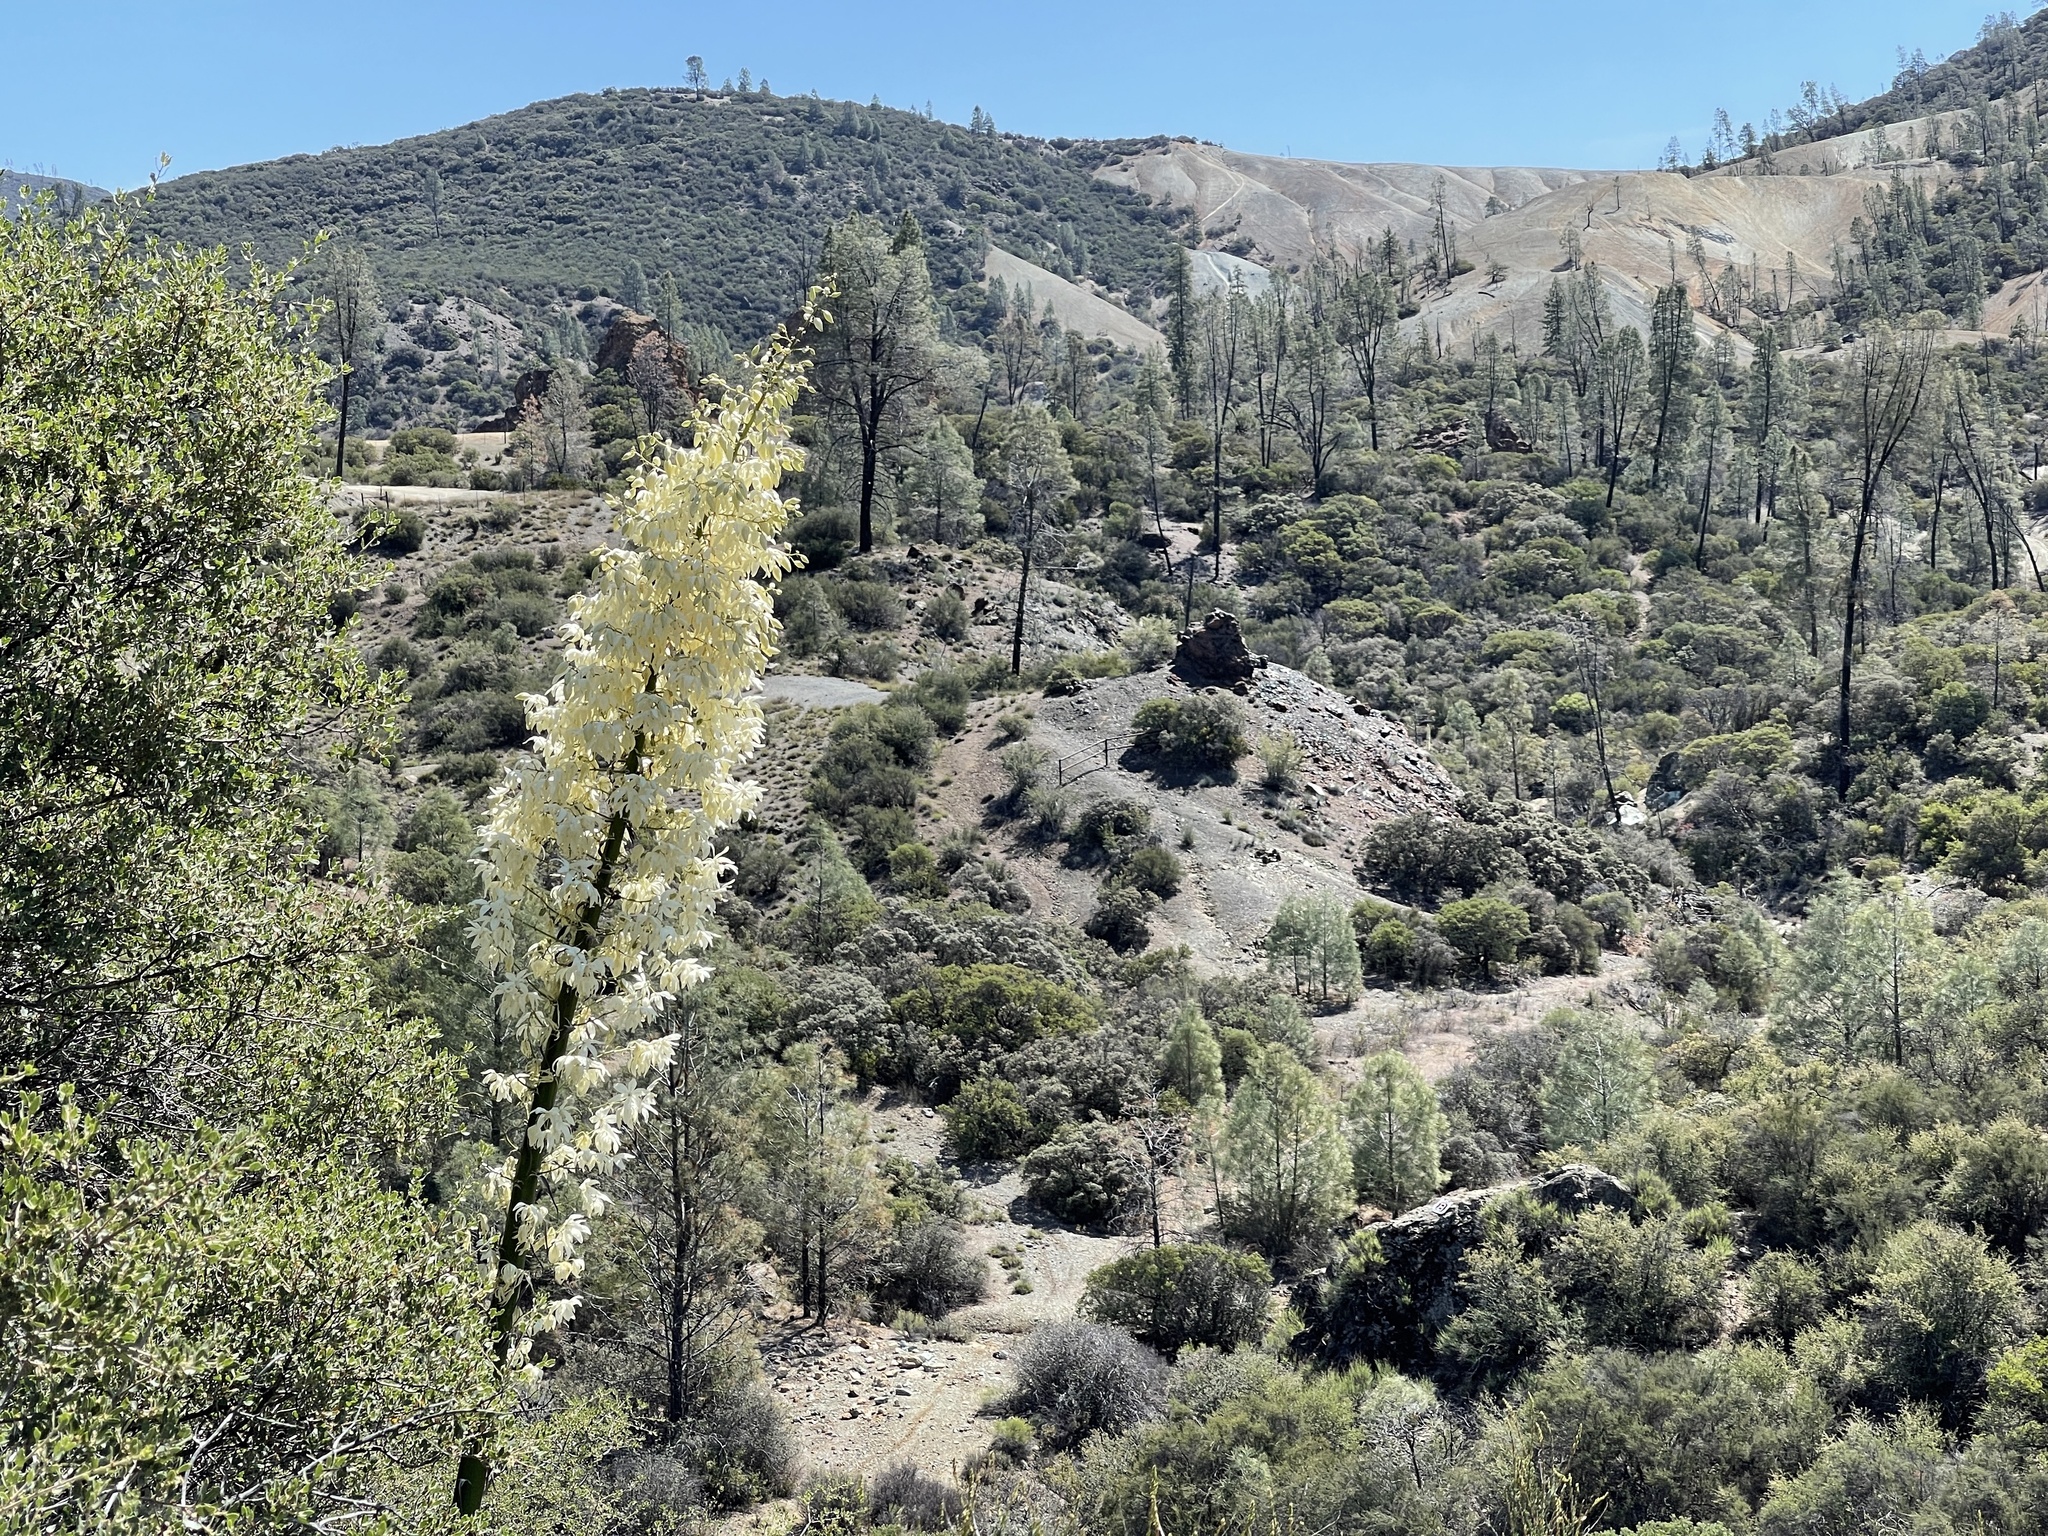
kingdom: Plantae
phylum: Tracheophyta
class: Liliopsida
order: Asparagales
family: Asparagaceae
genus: Hesperoyucca
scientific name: Hesperoyucca whipplei
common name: Our lord's-candle
